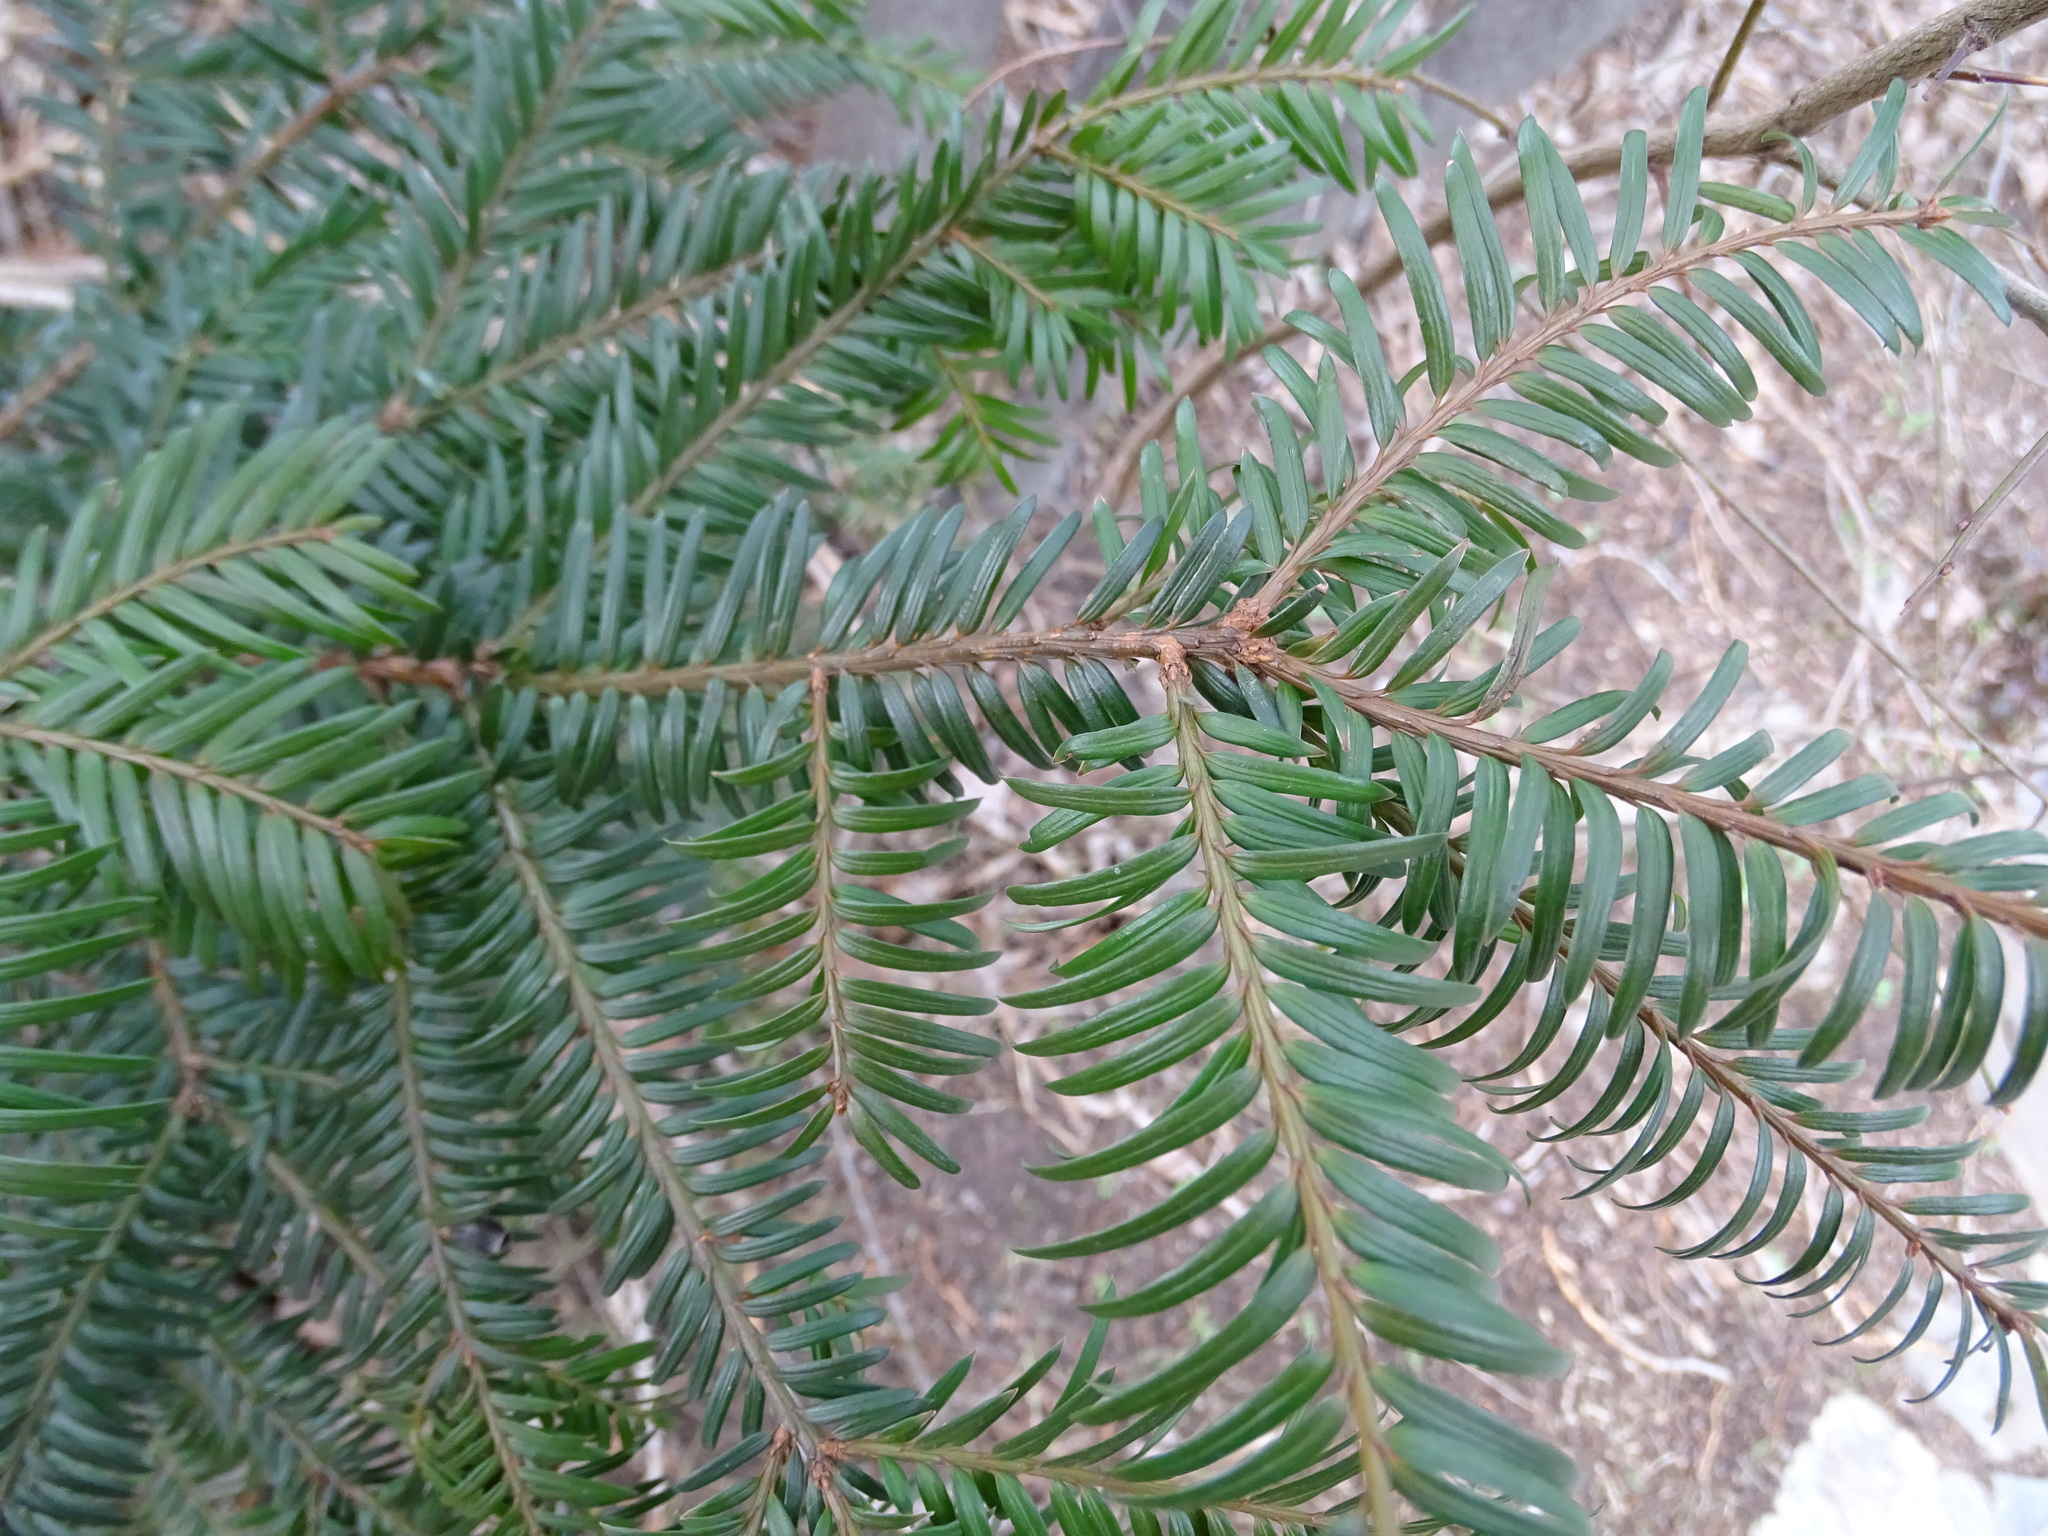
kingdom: Plantae
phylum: Tracheophyta
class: Pinopsida
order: Pinales
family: Taxaceae
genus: Taxus
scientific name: Taxus baccata
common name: Yew
